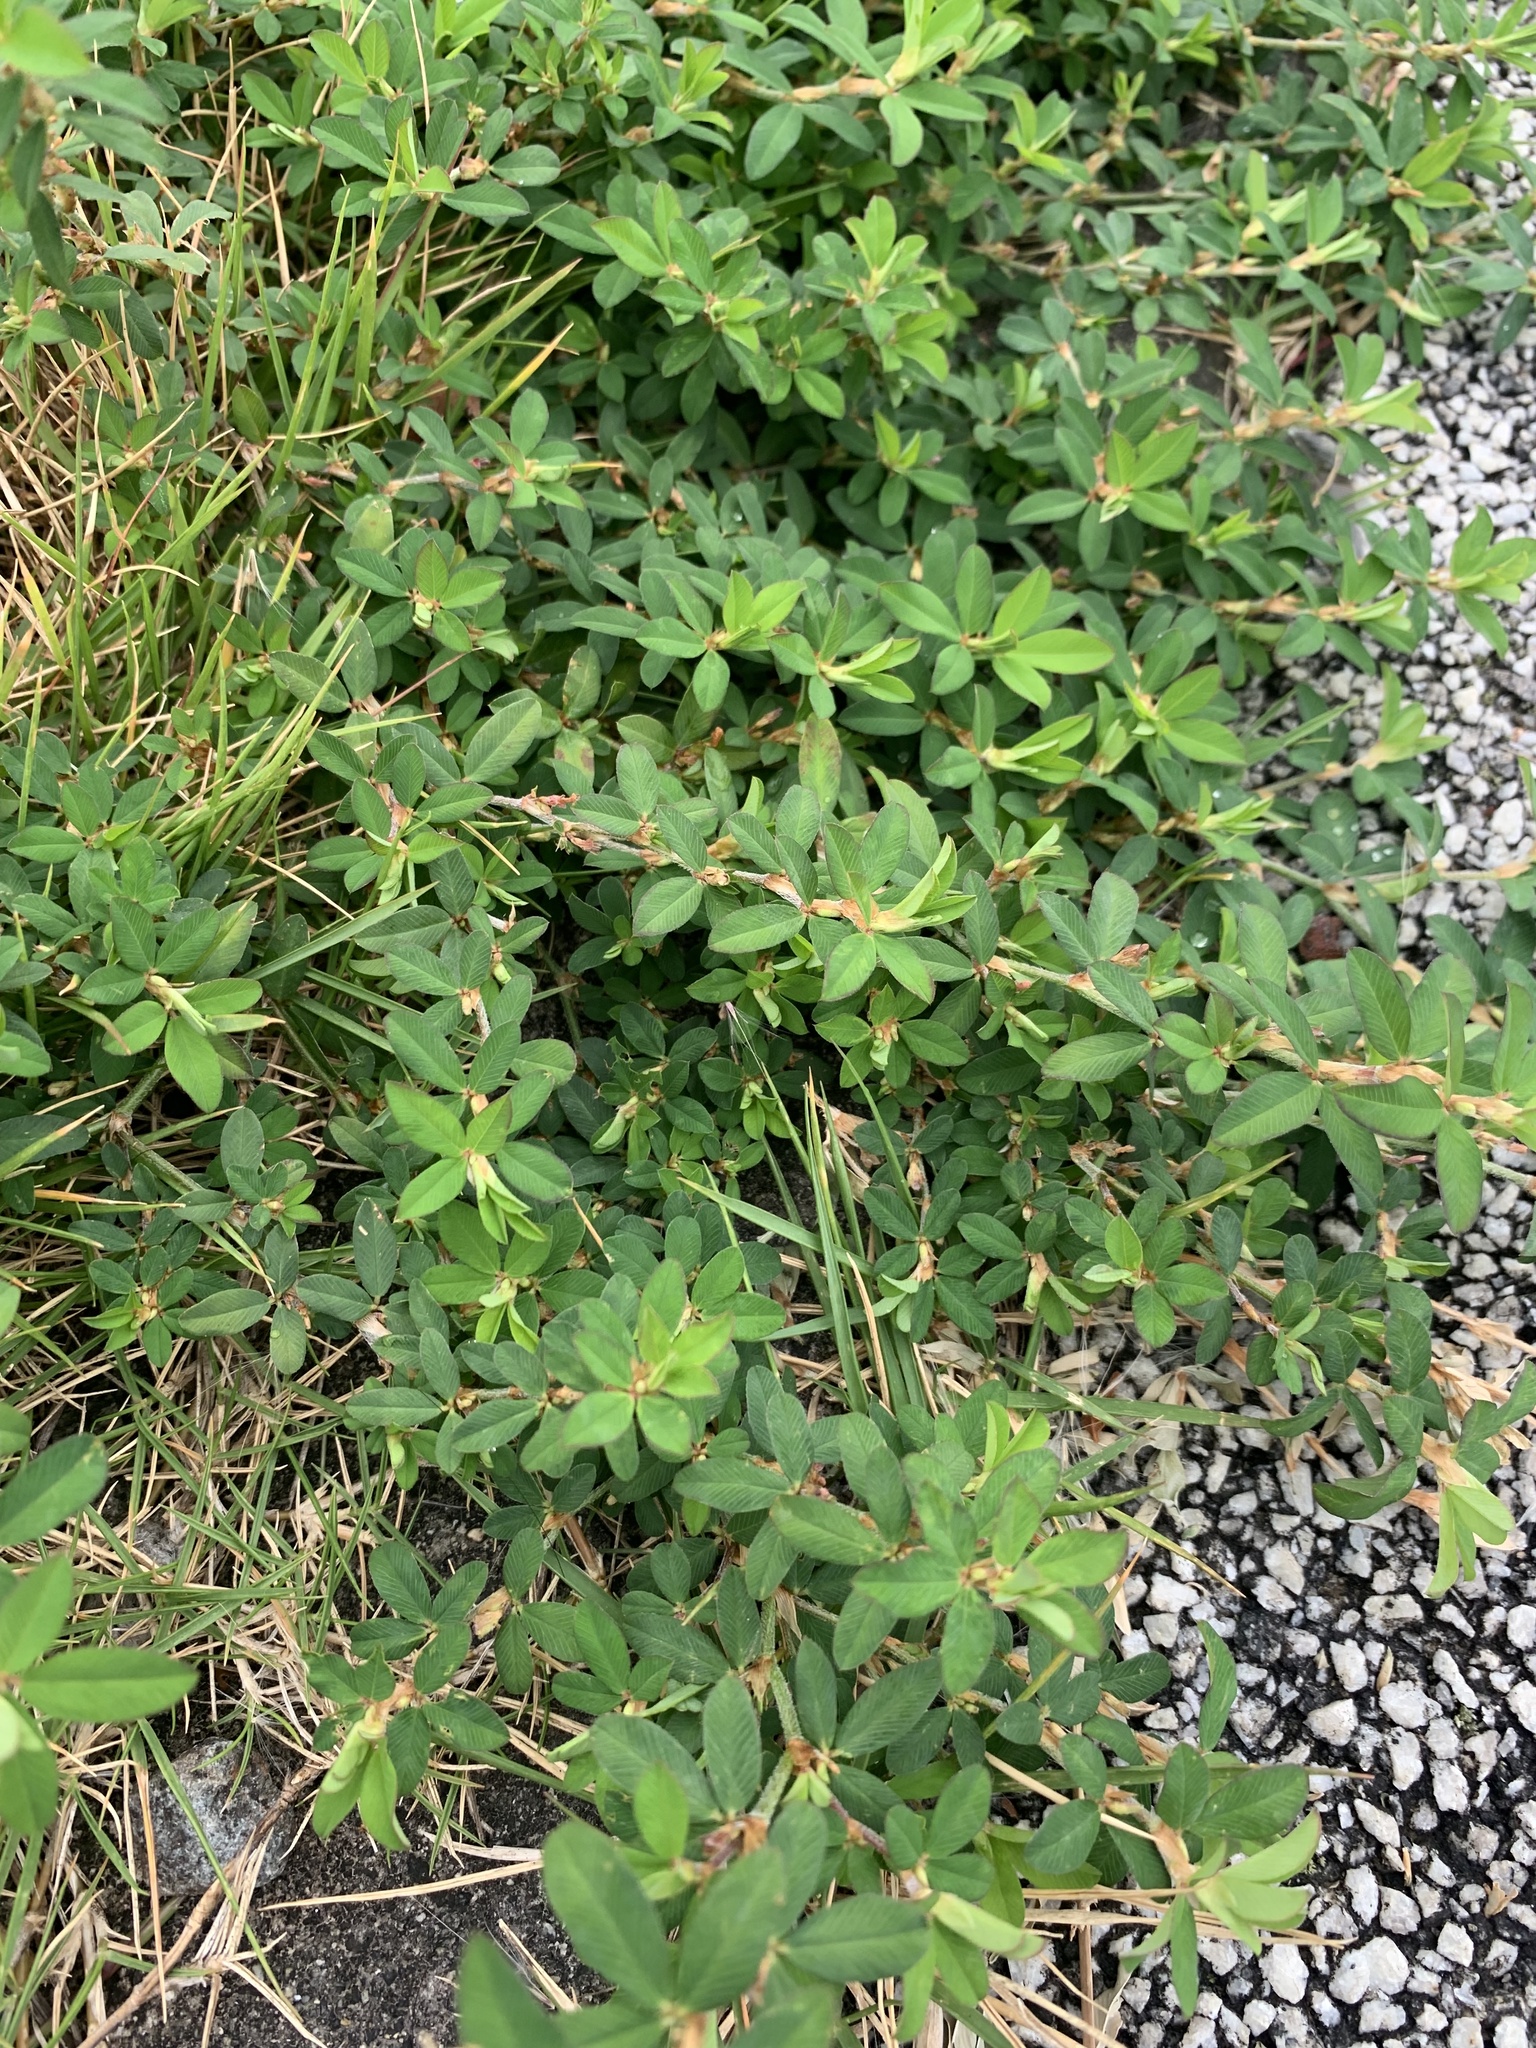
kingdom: Plantae
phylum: Tracheophyta
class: Magnoliopsida
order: Fabales
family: Fabaceae
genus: Kummerowia
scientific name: Kummerowia striata
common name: Japanese clover
